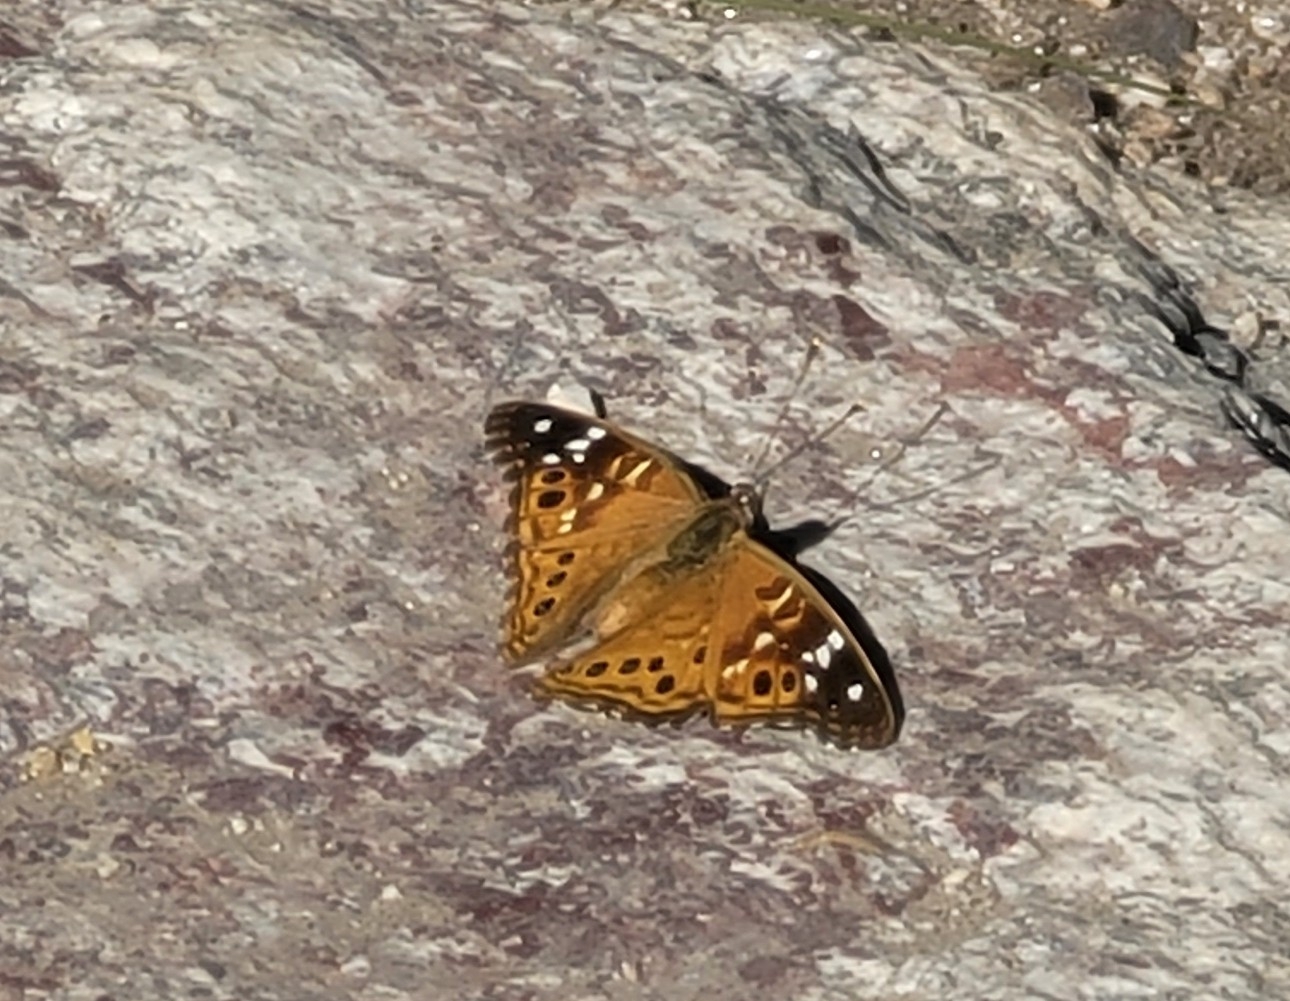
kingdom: Animalia
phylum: Arthropoda
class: Insecta
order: Lepidoptera
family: Nymphalidae
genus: Asterocampa
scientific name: Asterocampa leilia
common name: Empress leilia
